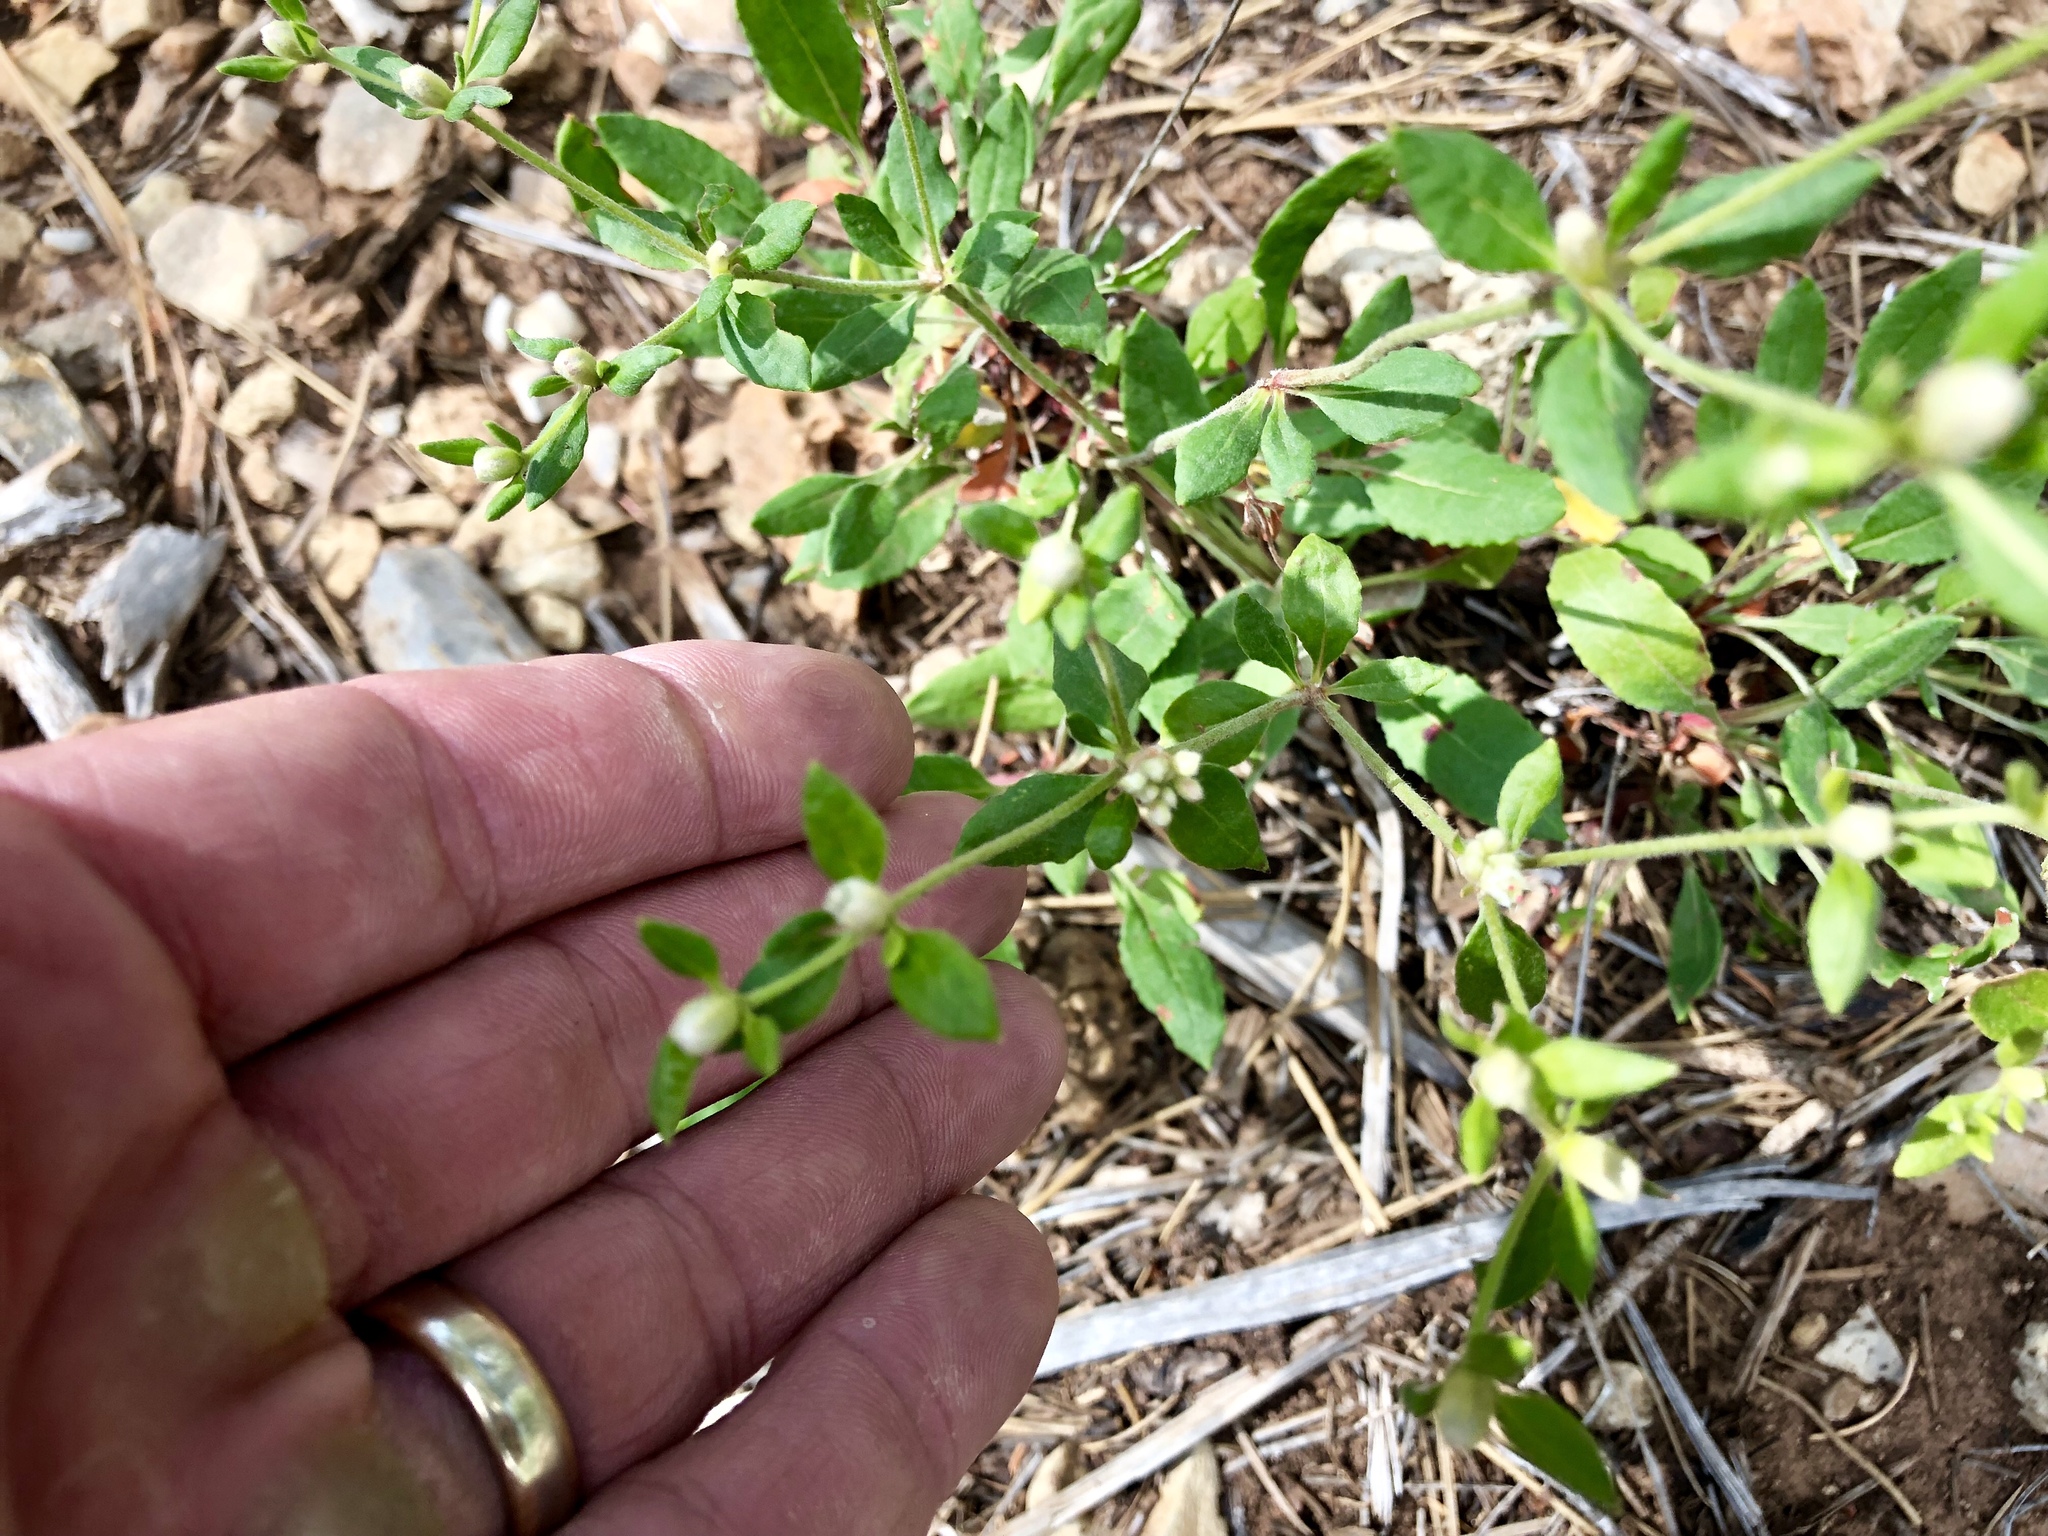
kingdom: Plantae
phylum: Tracheophyta
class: Magnoliopsida
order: Caryophyllales
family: Polygonaceae
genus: Eriogonum
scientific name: Eriogonum wootonii
